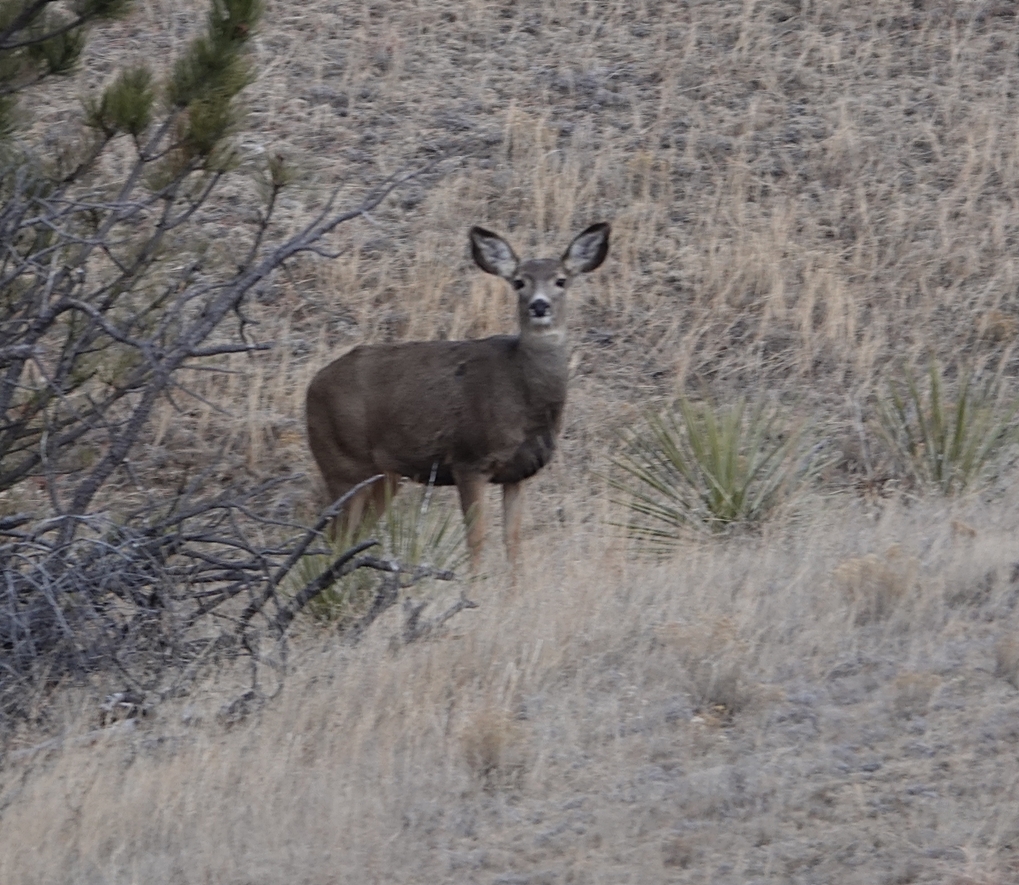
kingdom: Animalia
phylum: Chordata
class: Mammalia
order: Artiodactyla
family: Cervidae
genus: Odocoileus
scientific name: Odocoileus hemionus
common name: Mule deer
